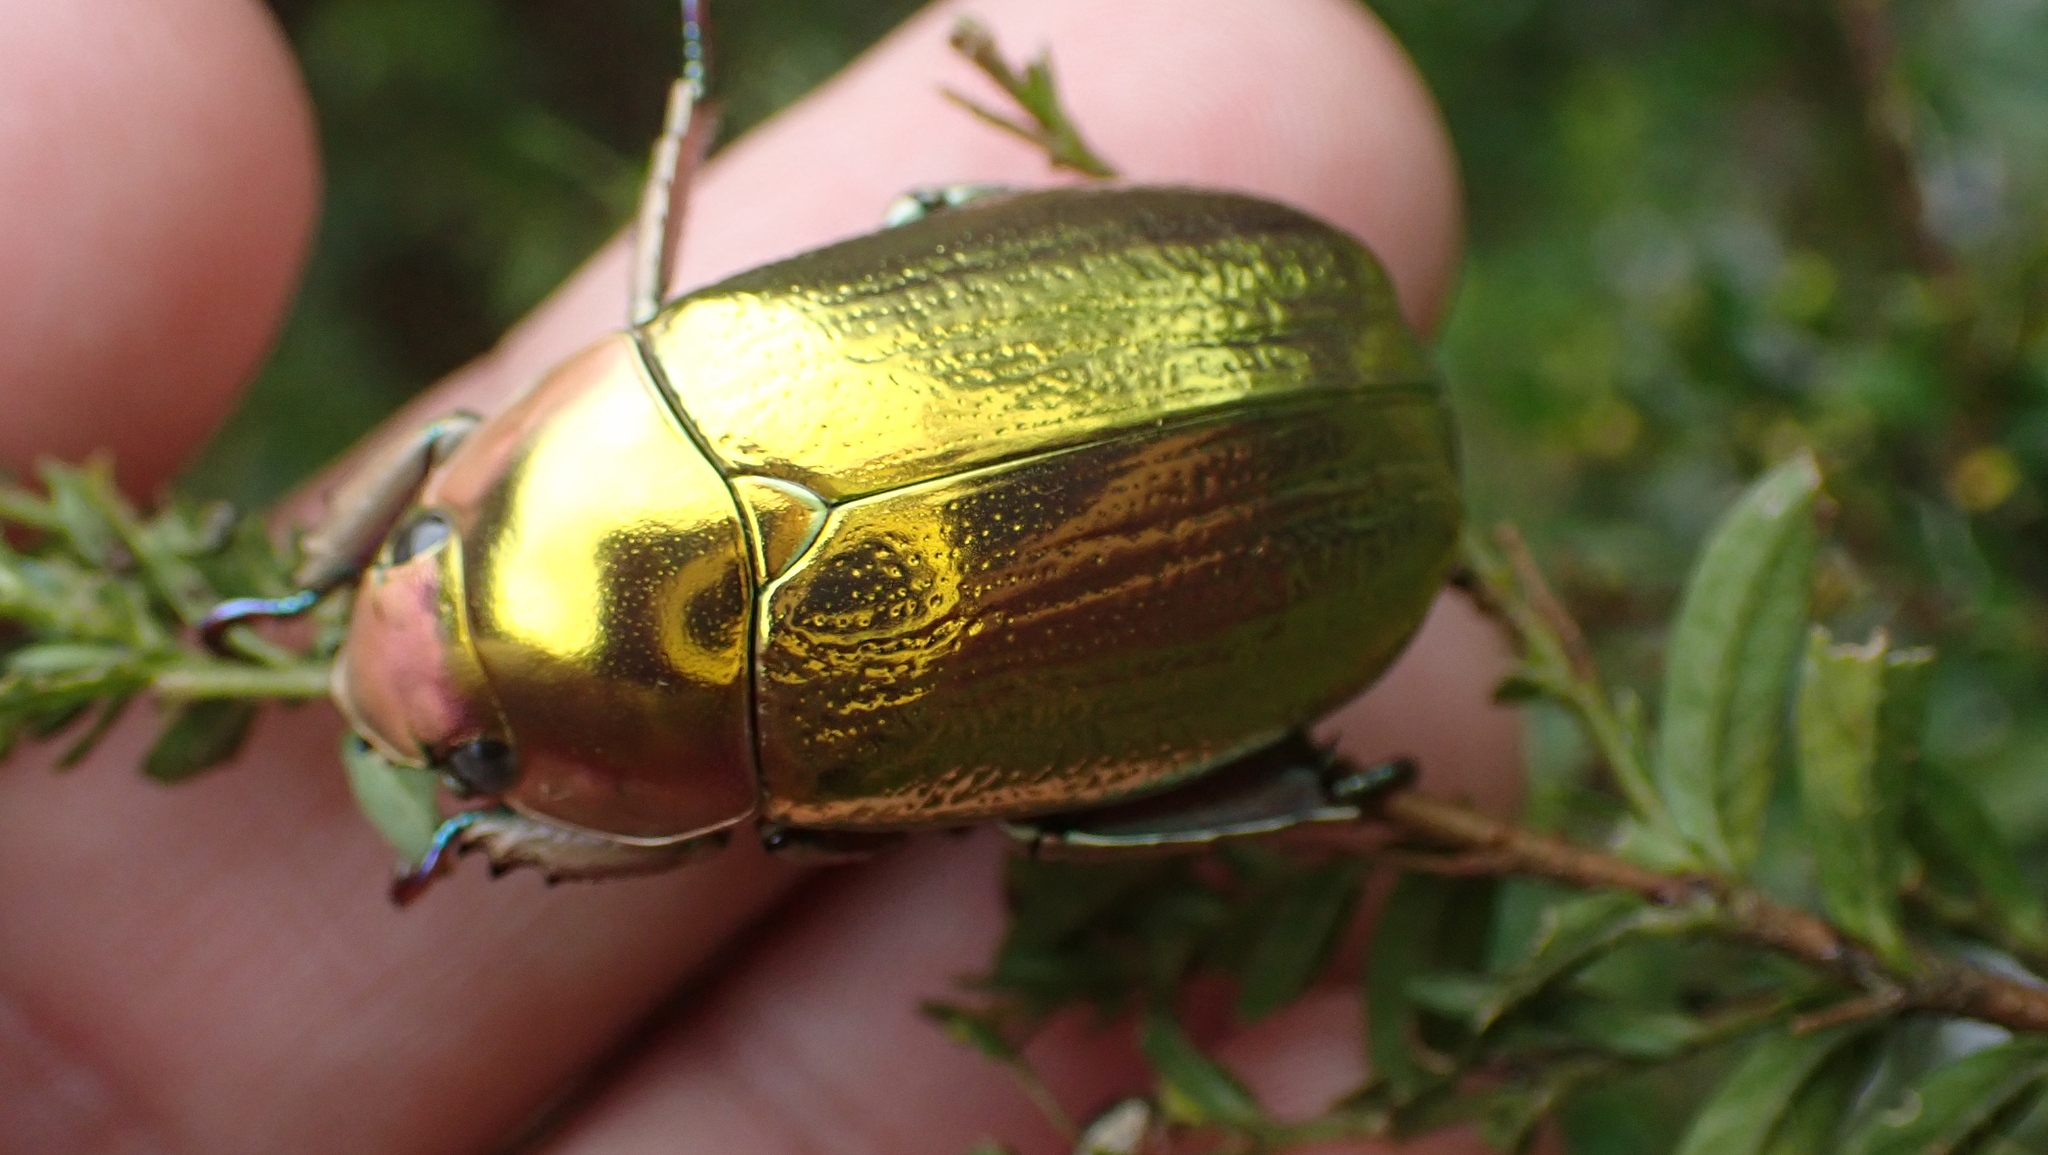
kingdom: Animalia
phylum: Arthropoda
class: Insecta
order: Coleoptera
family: Scarabaeidae
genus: Chrysina
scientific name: Chrysina aurigans
